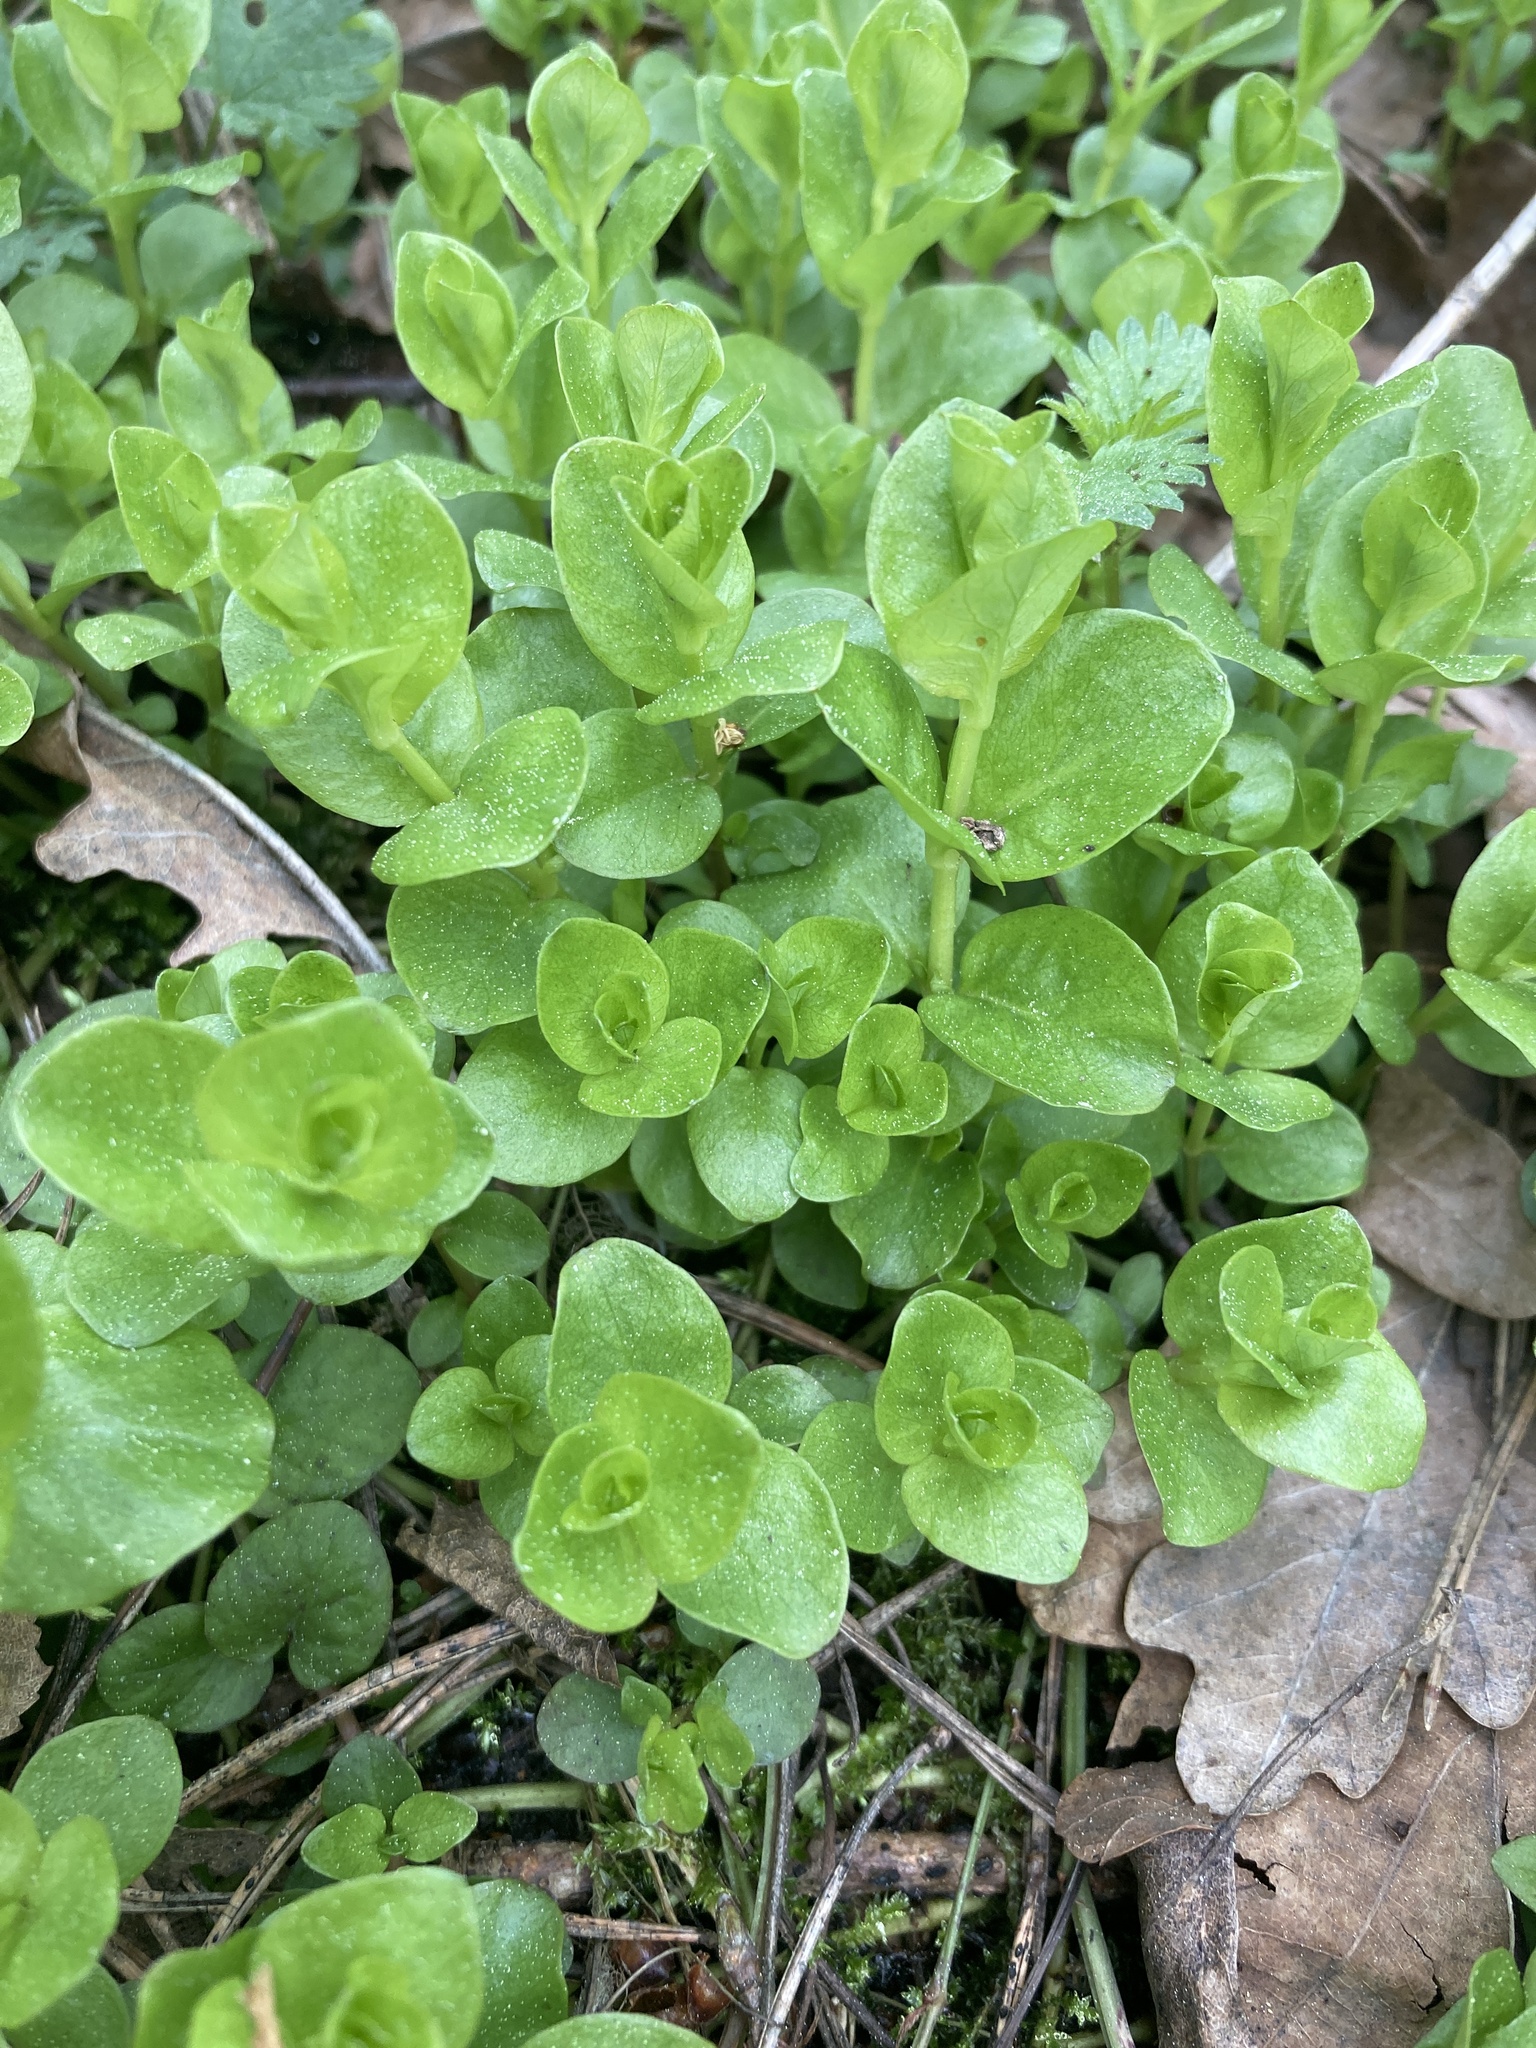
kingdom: Plantae
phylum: Tracheophyta
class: Magnoliopsida
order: Ericales
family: Primulaceae
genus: Lysimachia
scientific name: Lysimachia nummularia
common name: Moneywort
